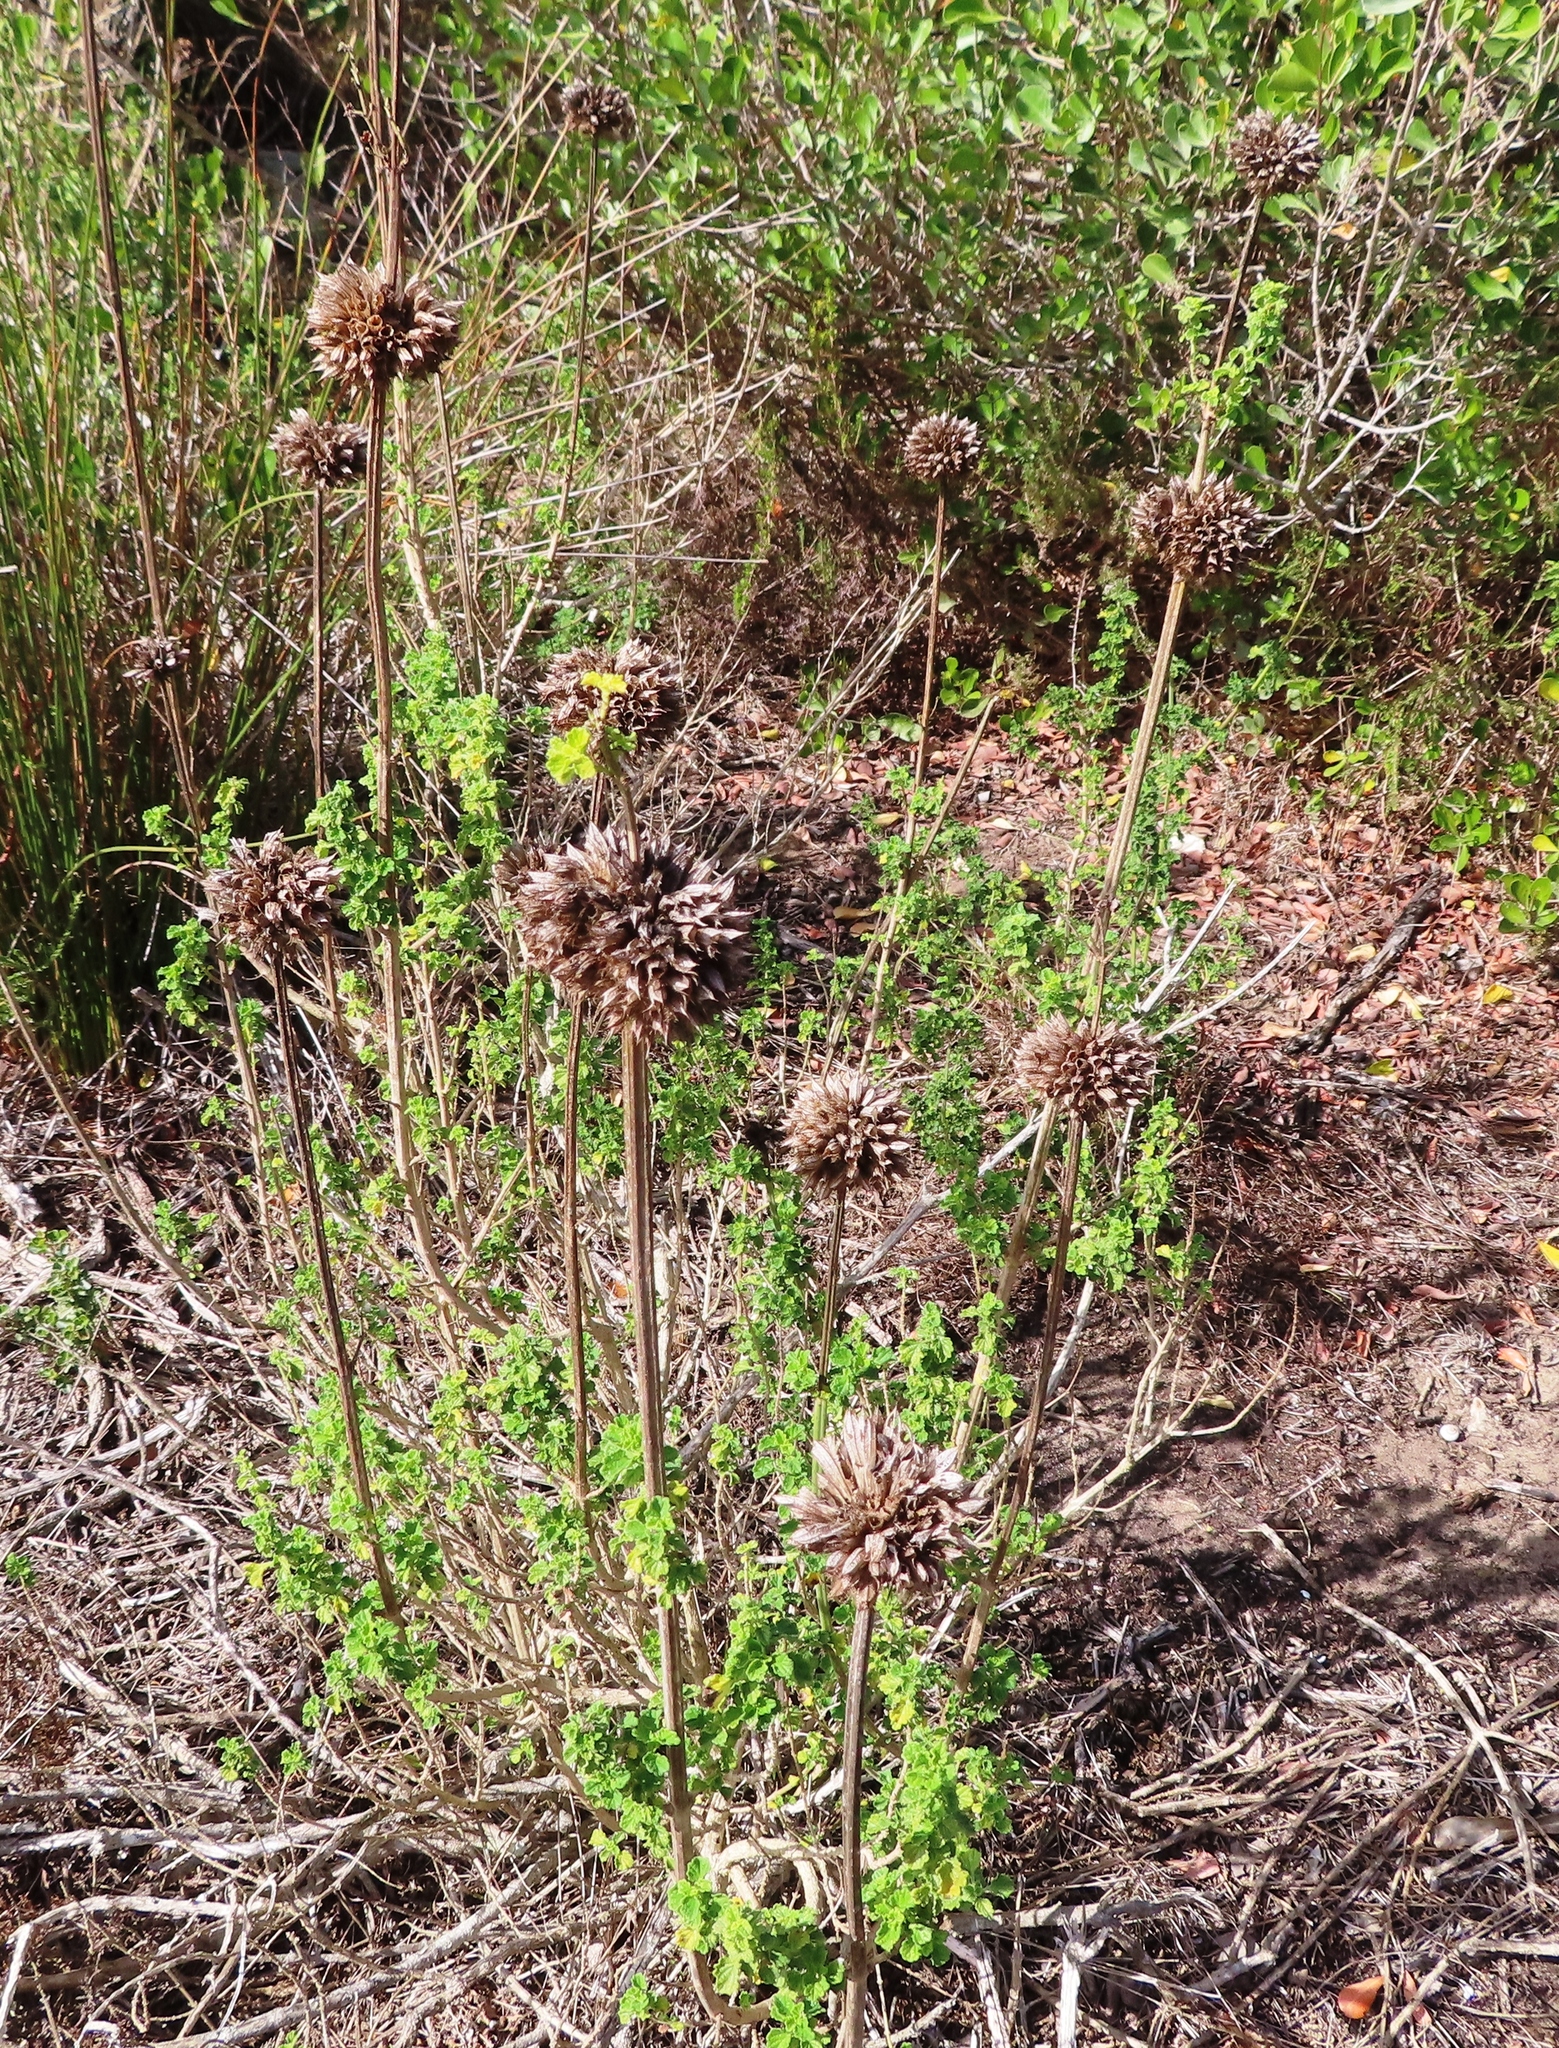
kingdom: Plantae
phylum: Tracheophyta
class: Magnoliopsida
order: Lamiales
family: Lamiaceae
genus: Leonotis
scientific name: Leonotis ocymifolia
